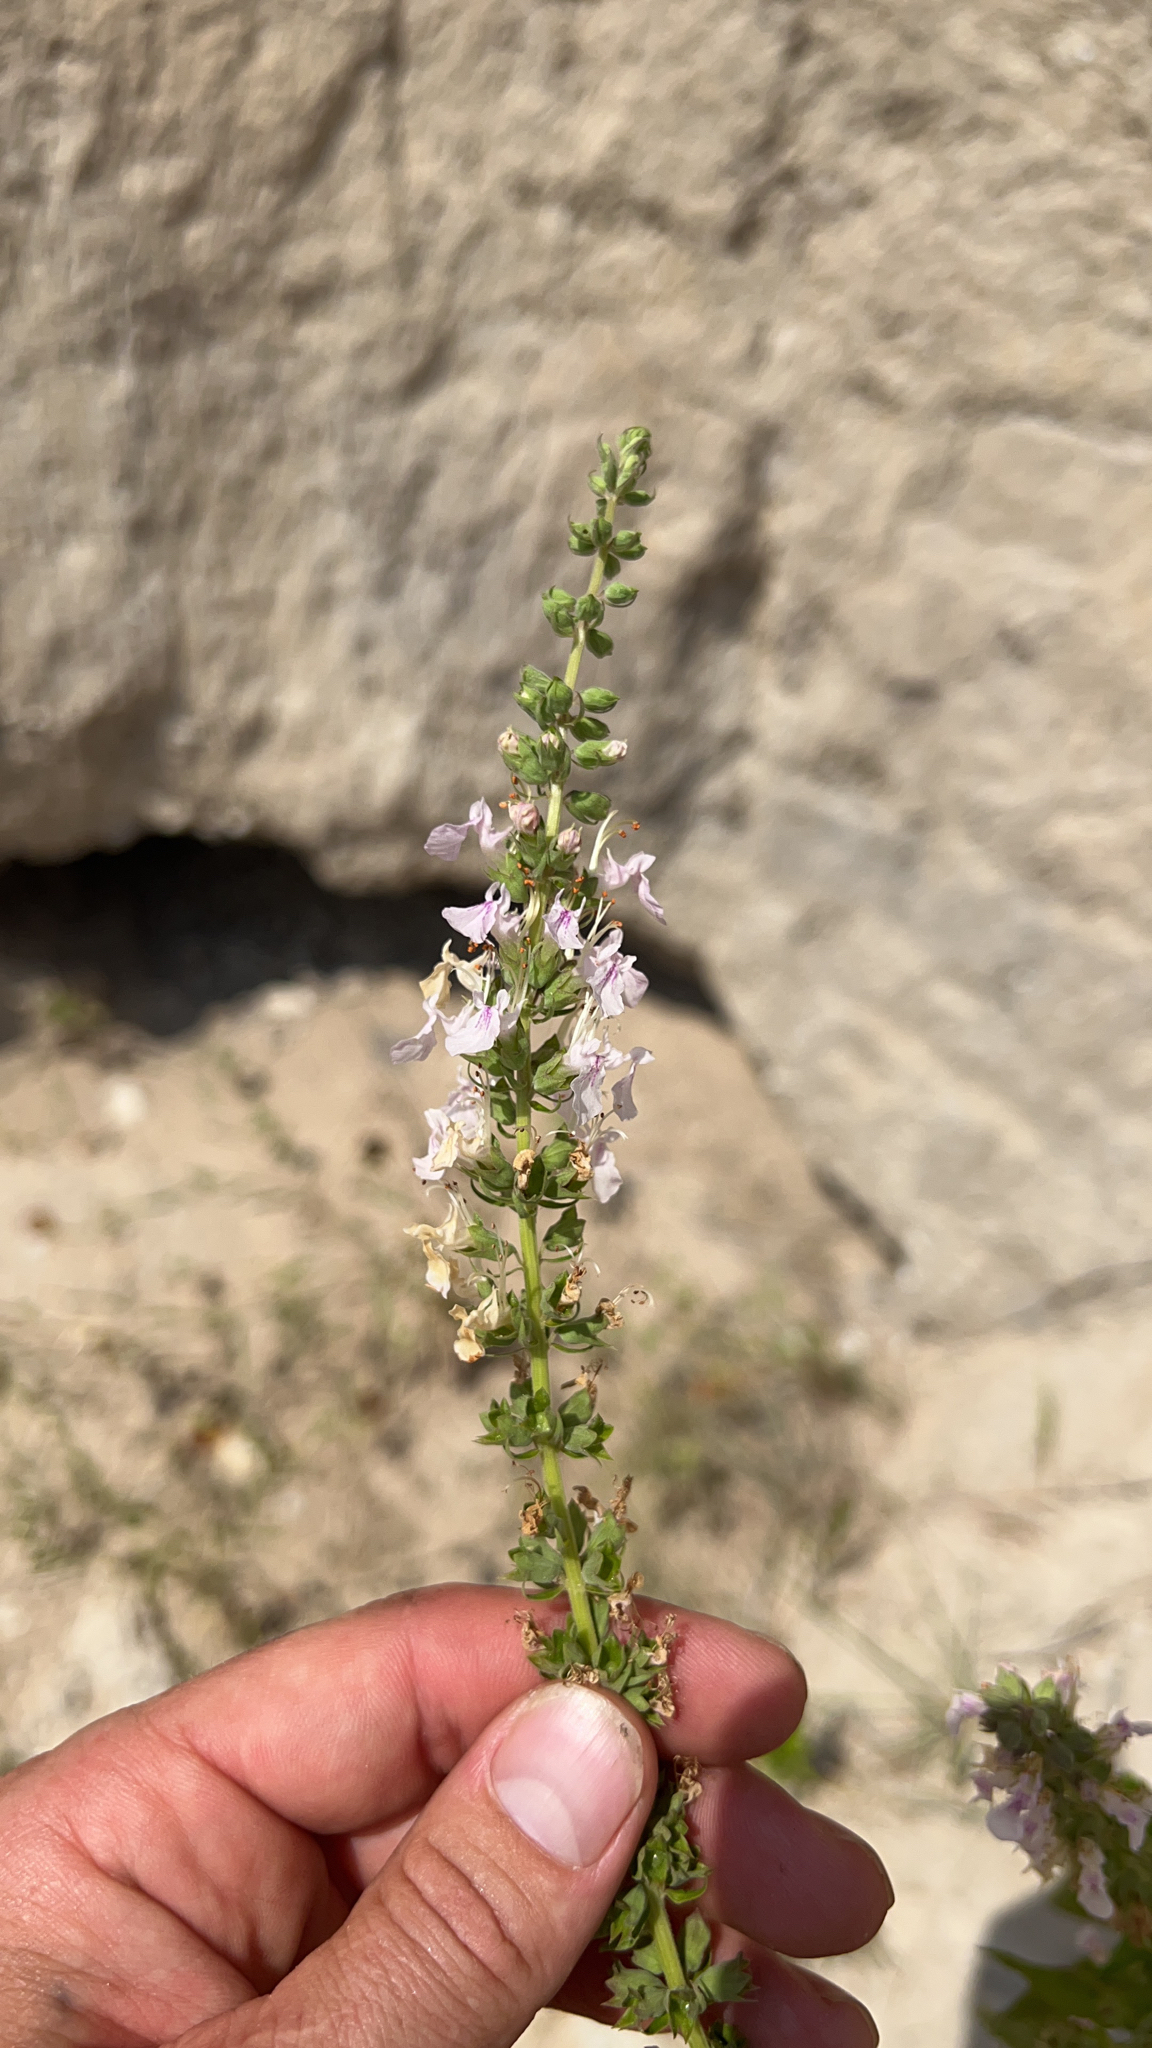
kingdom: Plantae
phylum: Tracheophyta
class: Magnoliopsida
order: Lamiales
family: Lamiaceae
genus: Teucrium
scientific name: Teucrium canadense
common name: American germander
